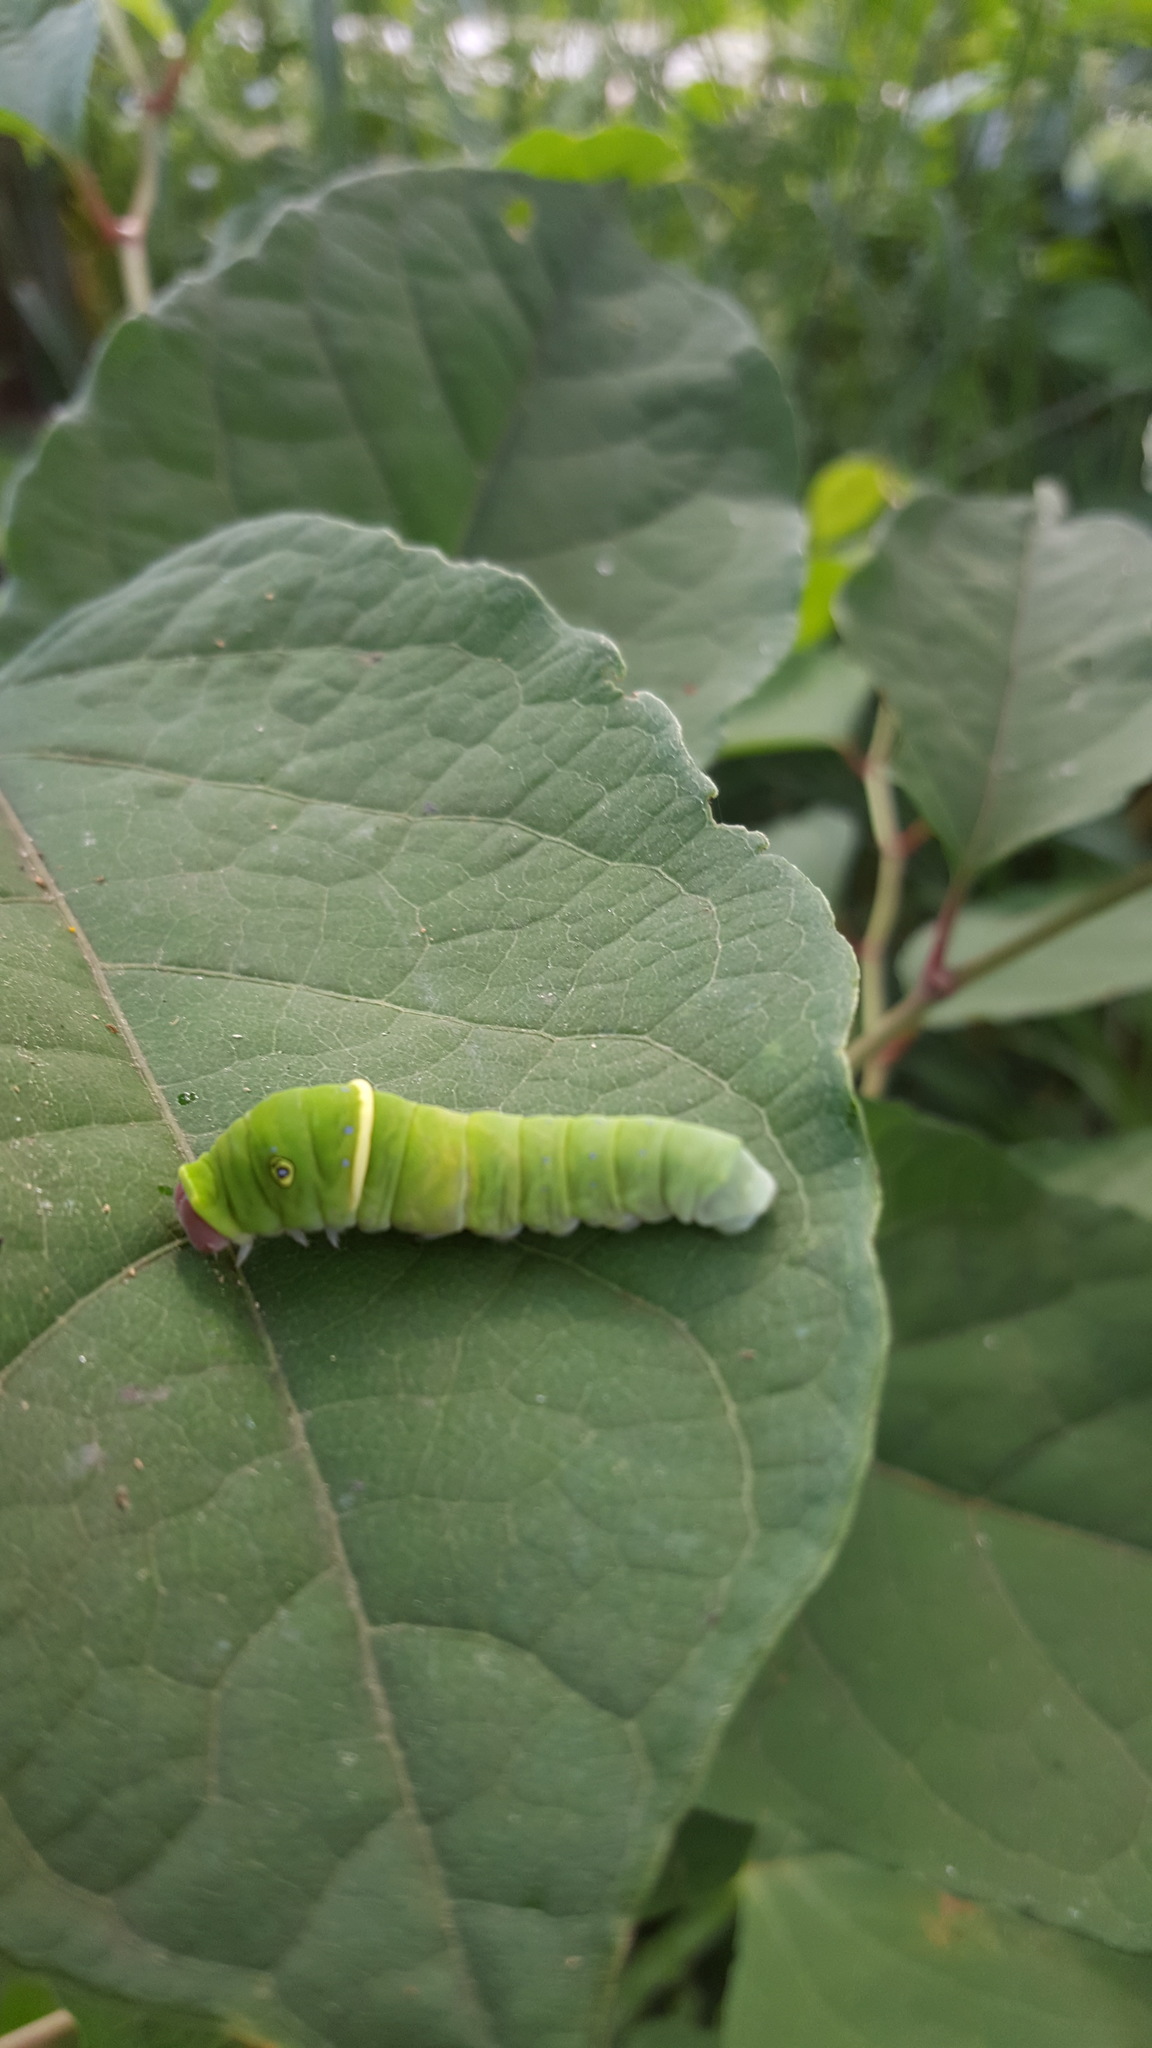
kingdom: Animalia
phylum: Arthropoda
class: Insecta
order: Lepidoptera
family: Papilionidae
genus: Papilio
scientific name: Papilio glaucus
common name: Tiger swallowtail
